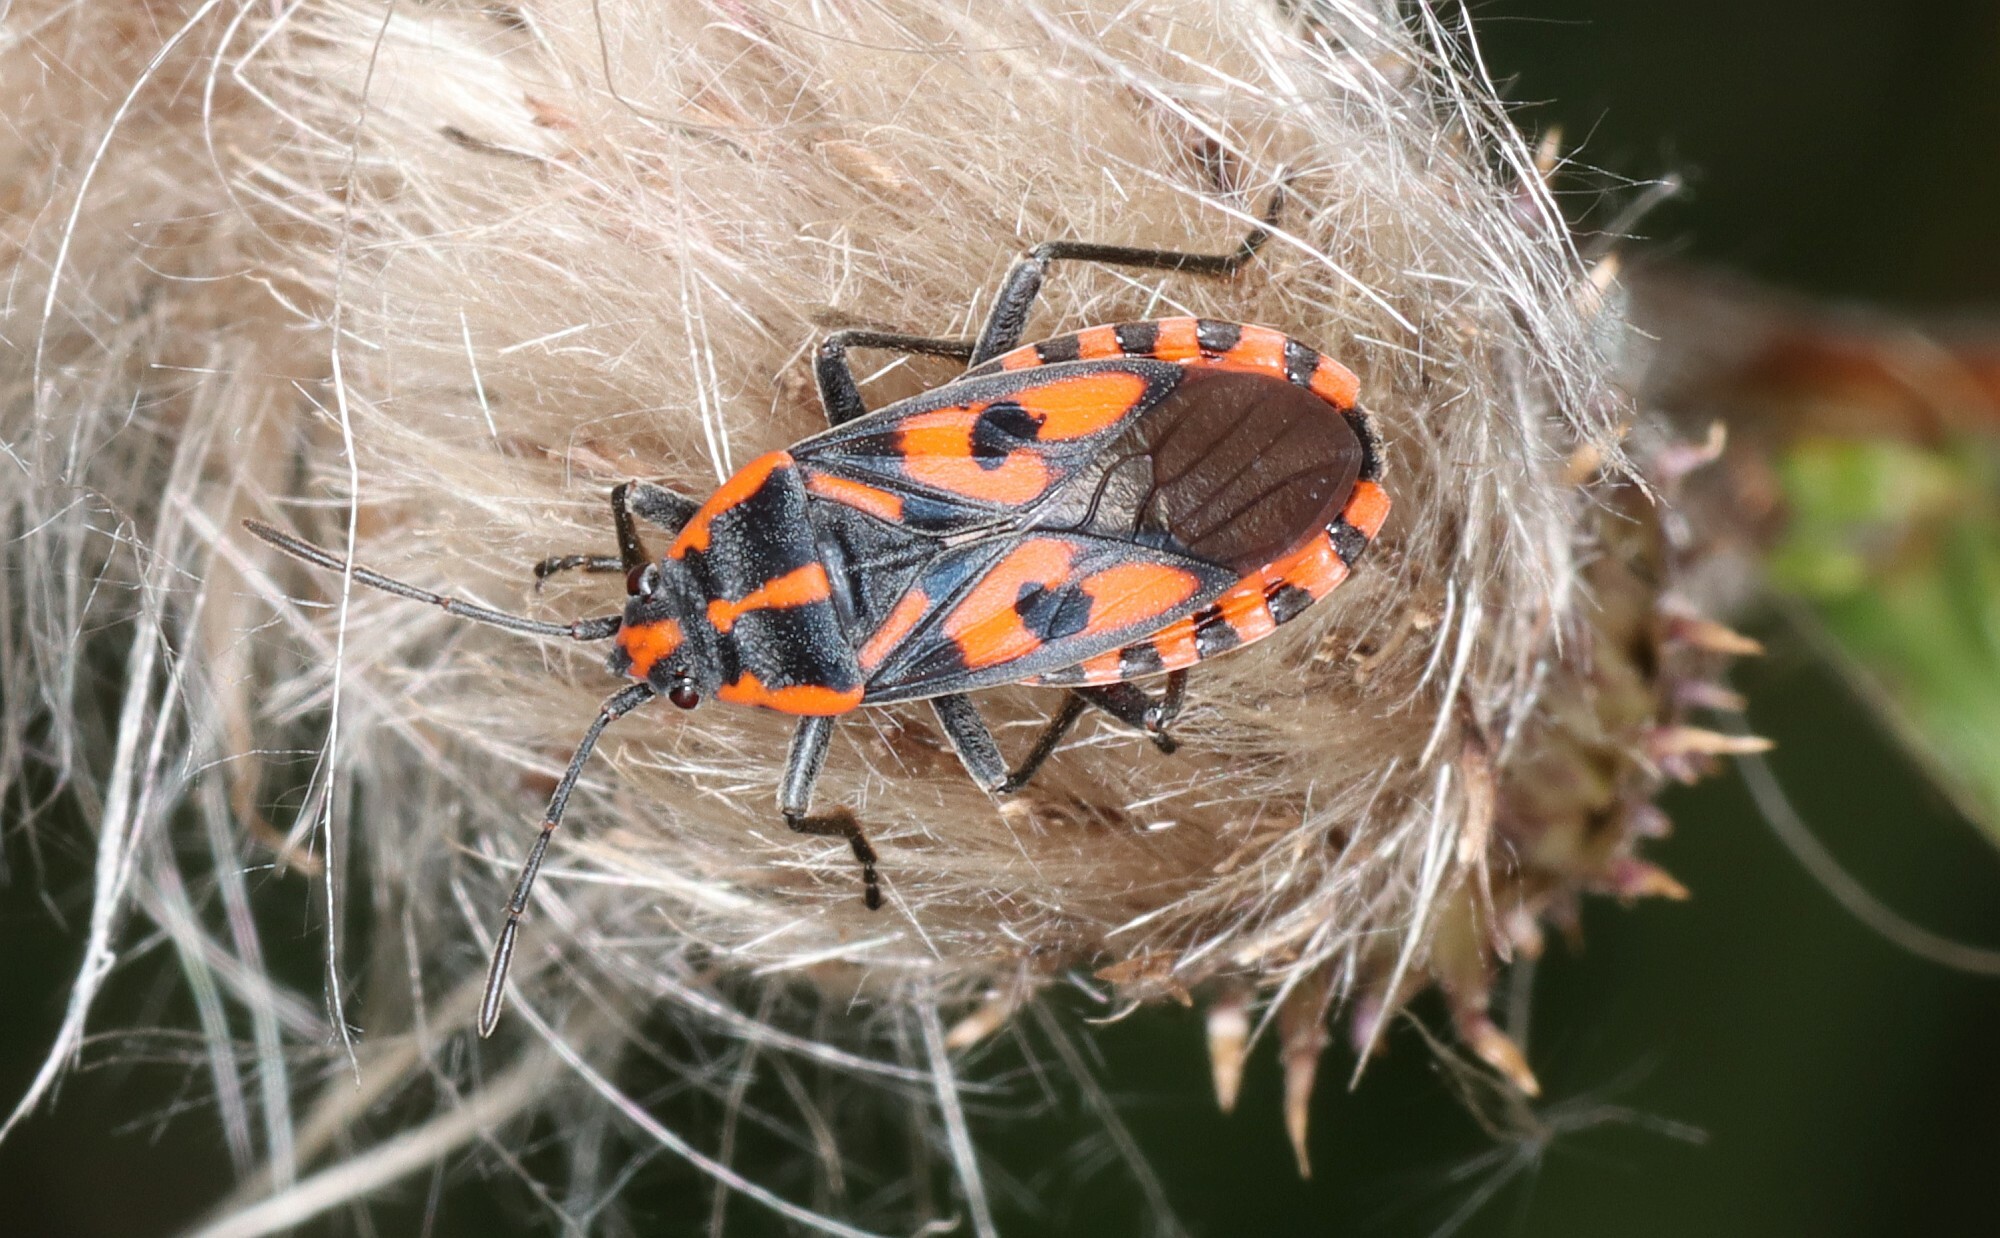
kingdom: Animalia
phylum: Arthropoda
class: Insecta
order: Hemiptera
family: Lygaeidae
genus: Spilostethus
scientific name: Spilostethus saxatilis
